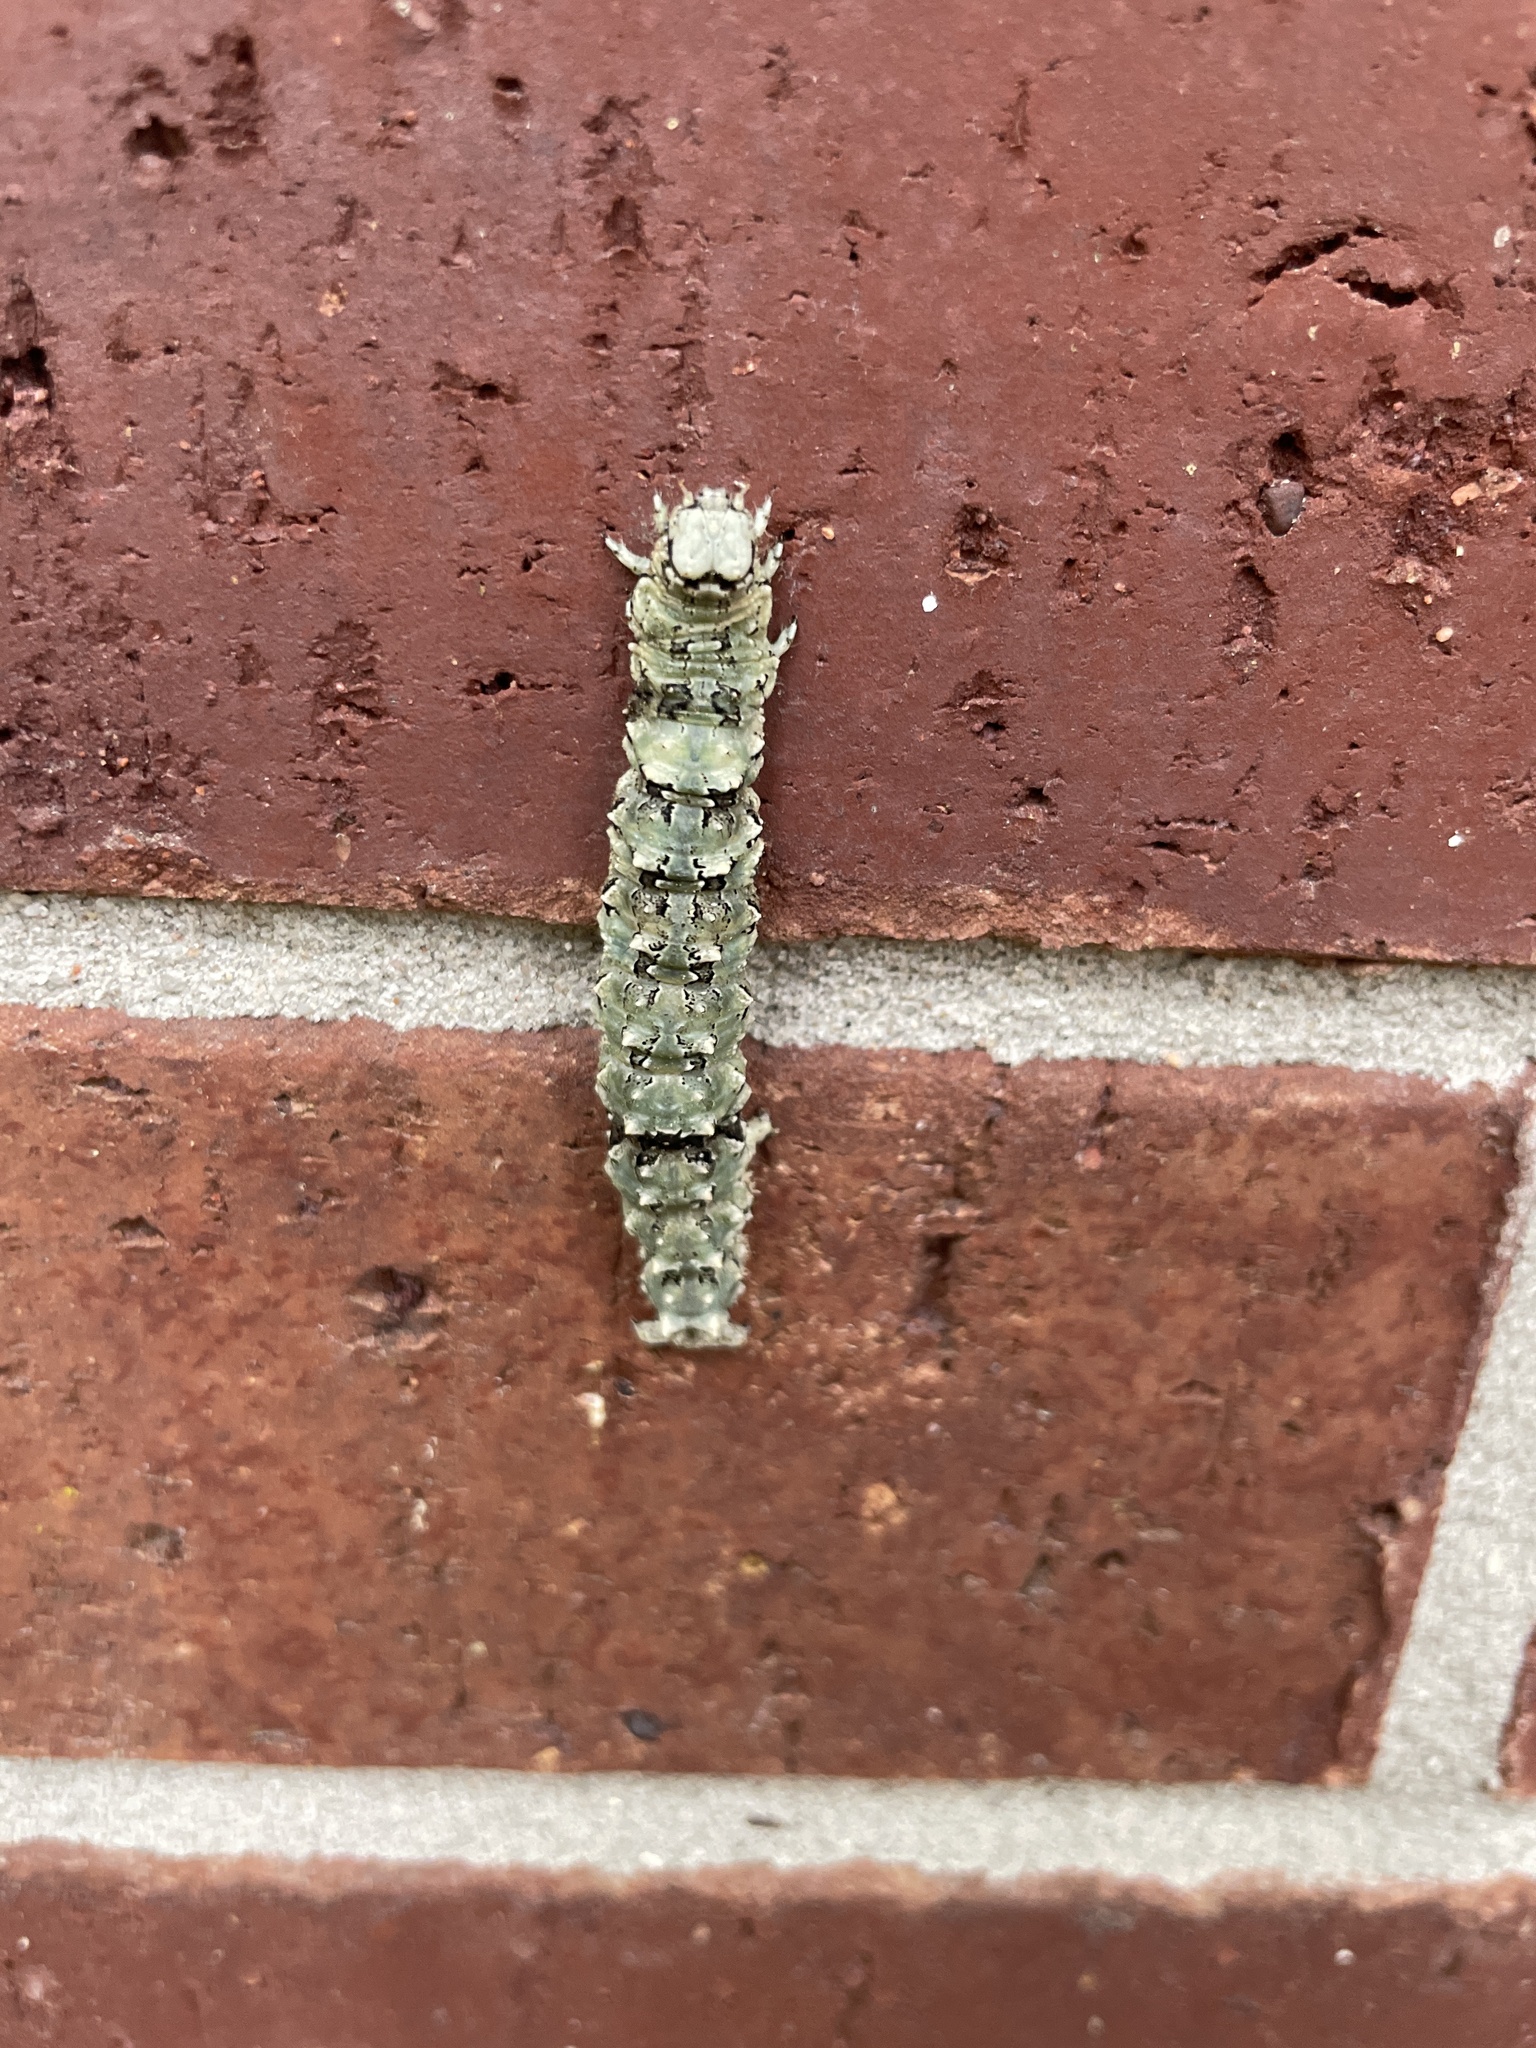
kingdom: Animalia
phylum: Arthropoda
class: Insecta
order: Lepidoptera
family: Erebidae
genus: Catocala
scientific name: Catocala ilia
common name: Ilia underwing
